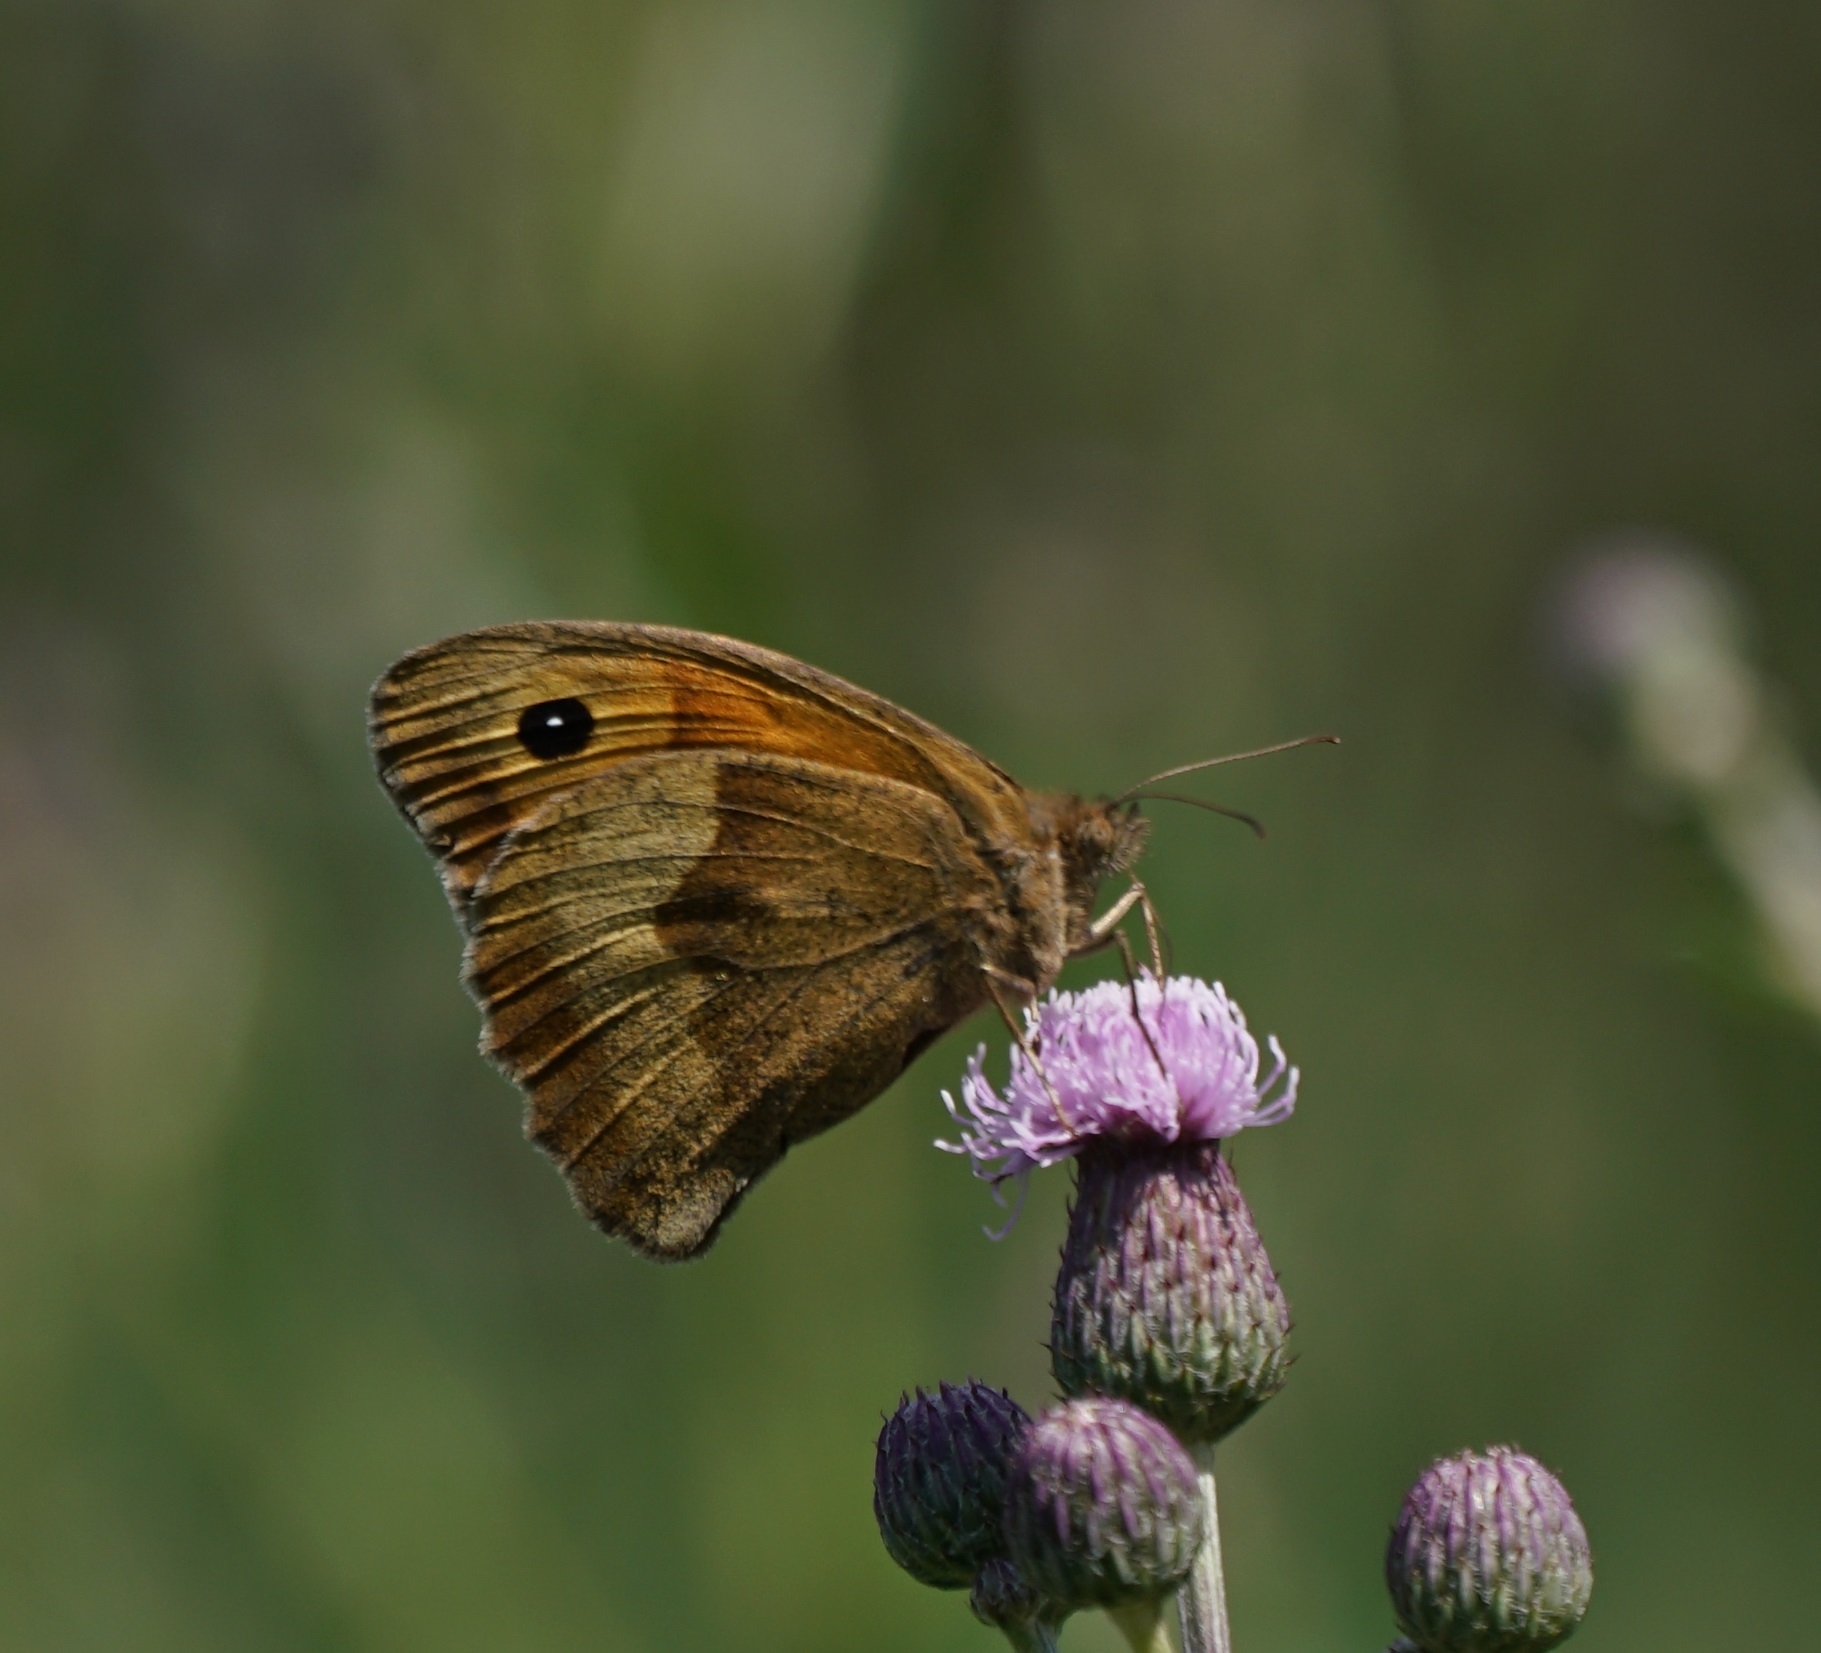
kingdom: Animalia
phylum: Arthropoda
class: Insecta
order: Lepidoptera
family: Nymphalidae
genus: Maniola
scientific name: Maniola jurtina
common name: Meadow brown
